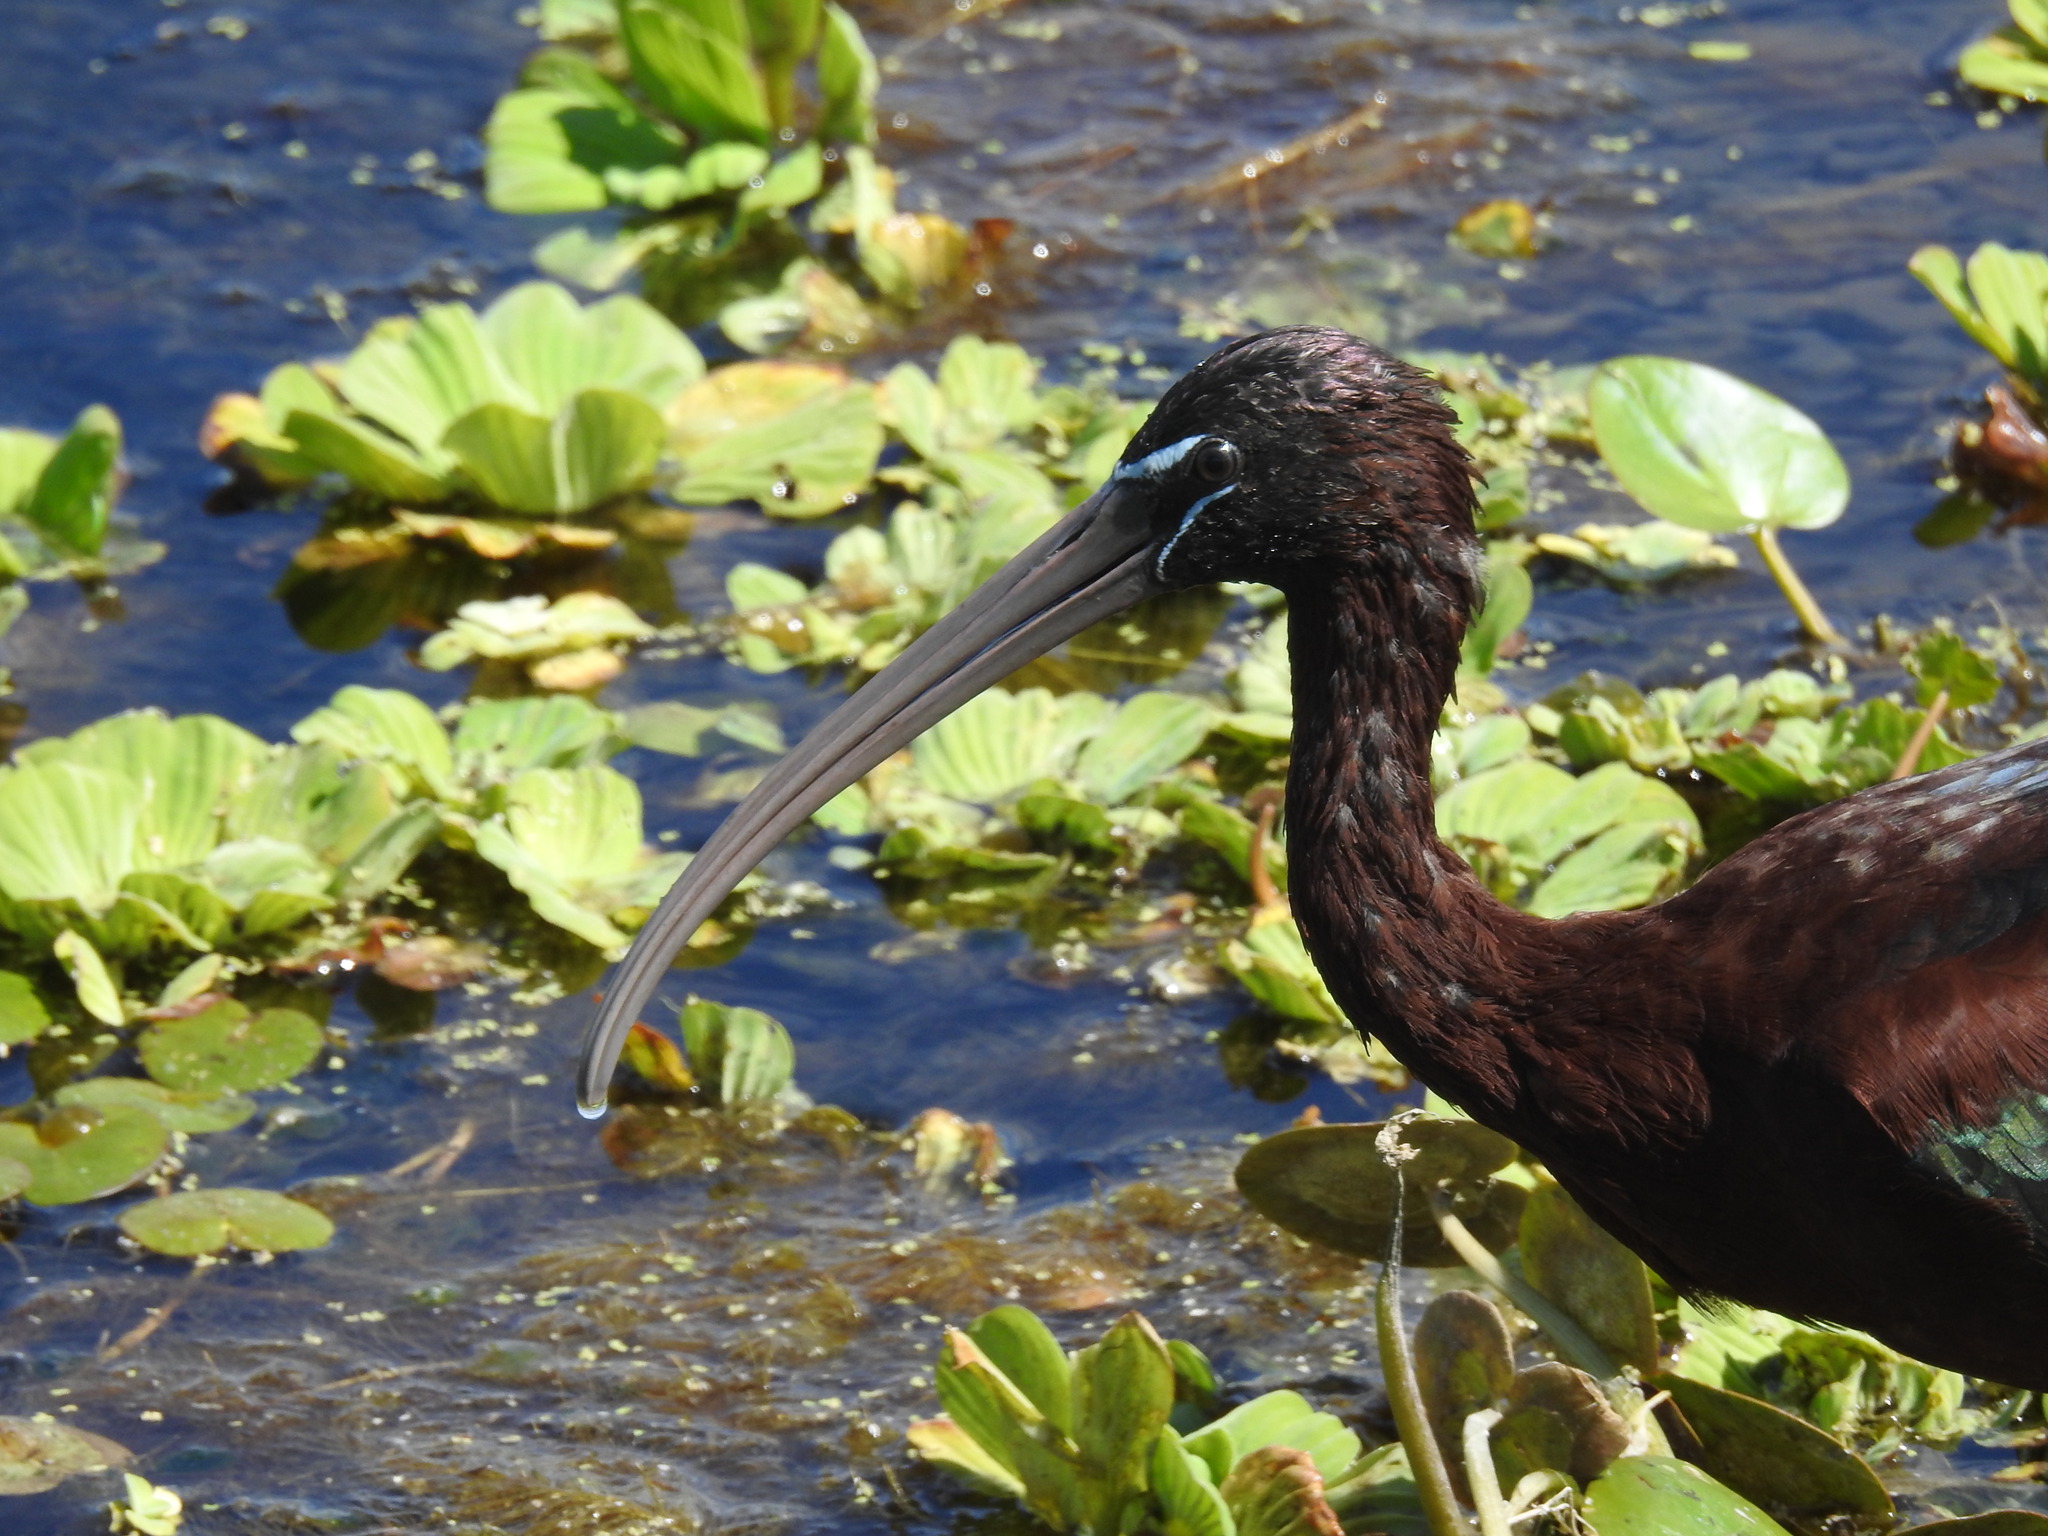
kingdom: Animalia
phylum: Chordata
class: Aves
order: Pelecaniformes
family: Threskiornithidae
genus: Plegadis
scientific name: Plegadis falcinellus
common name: Glossy ibis
